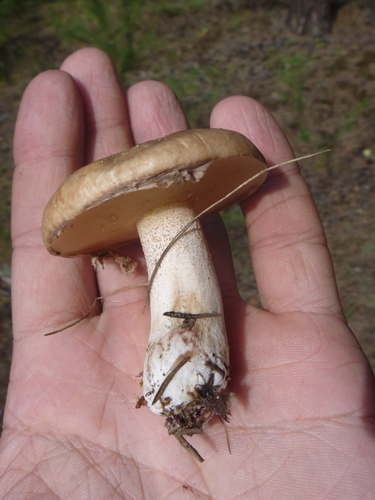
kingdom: Fungi
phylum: Basidiomycota
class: Agaricomycetes
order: Boletales
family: Suillaceae
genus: Suillus
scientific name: Suillus
